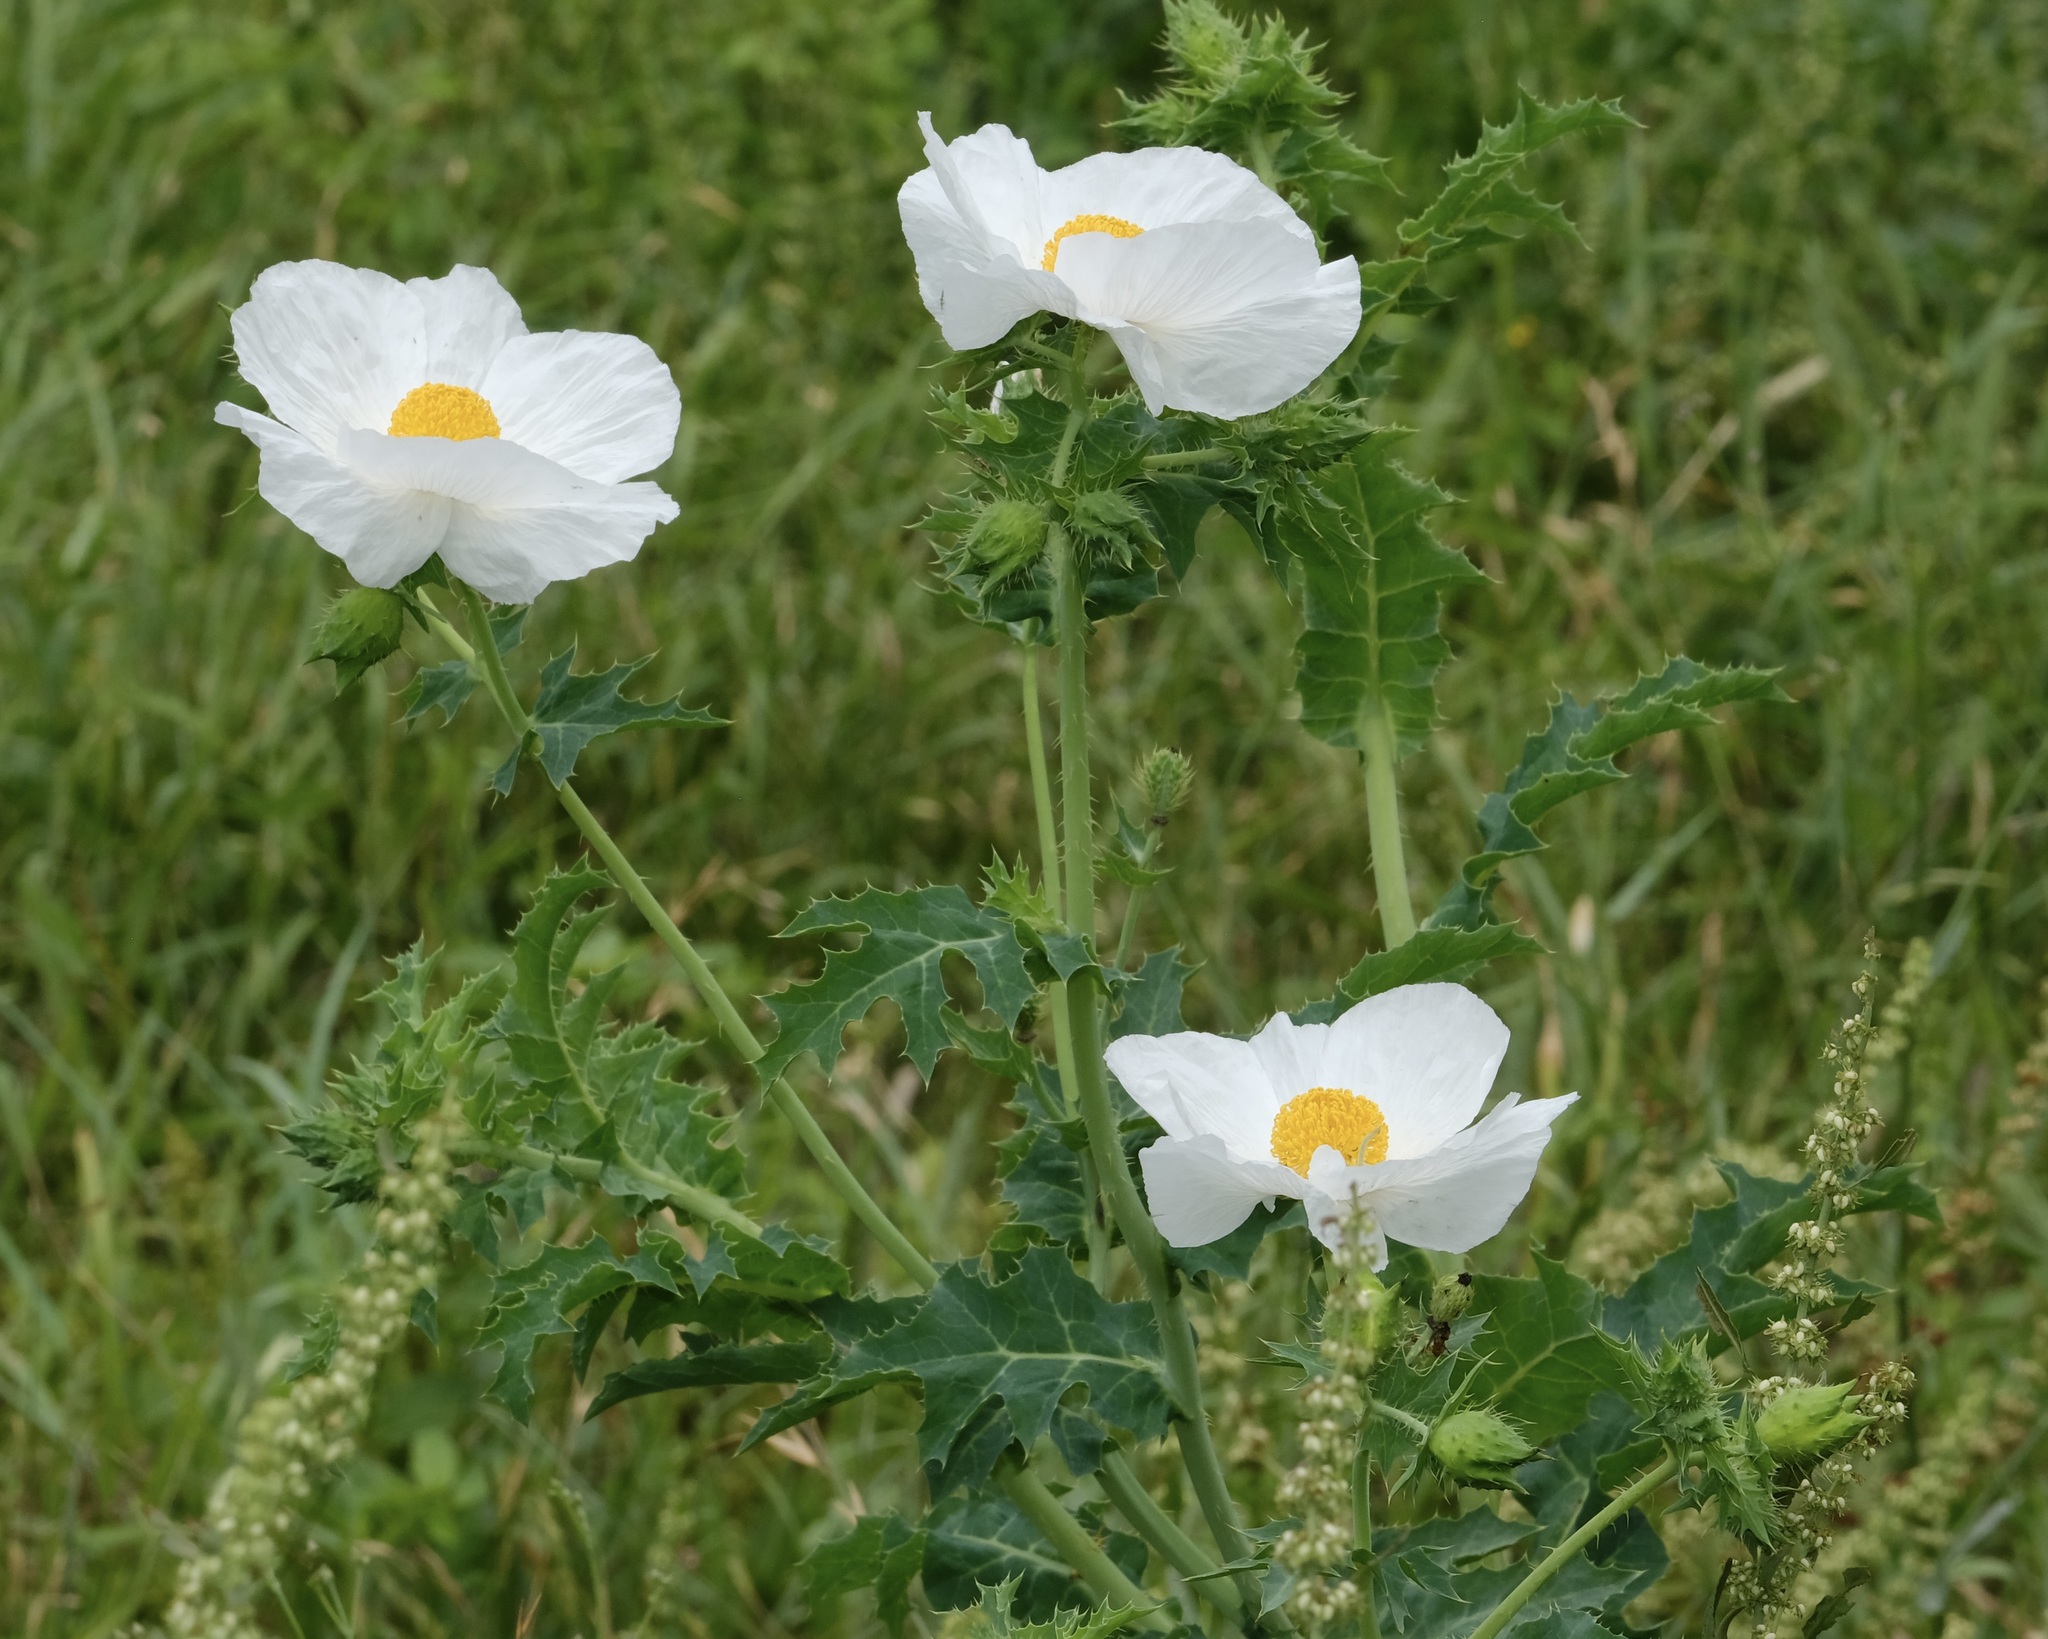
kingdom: Plantae
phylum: Tracheophyta
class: Magnoliopsida
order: Ranunculales
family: Papaveraceae
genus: Argemone
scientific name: Argemone albiflora
